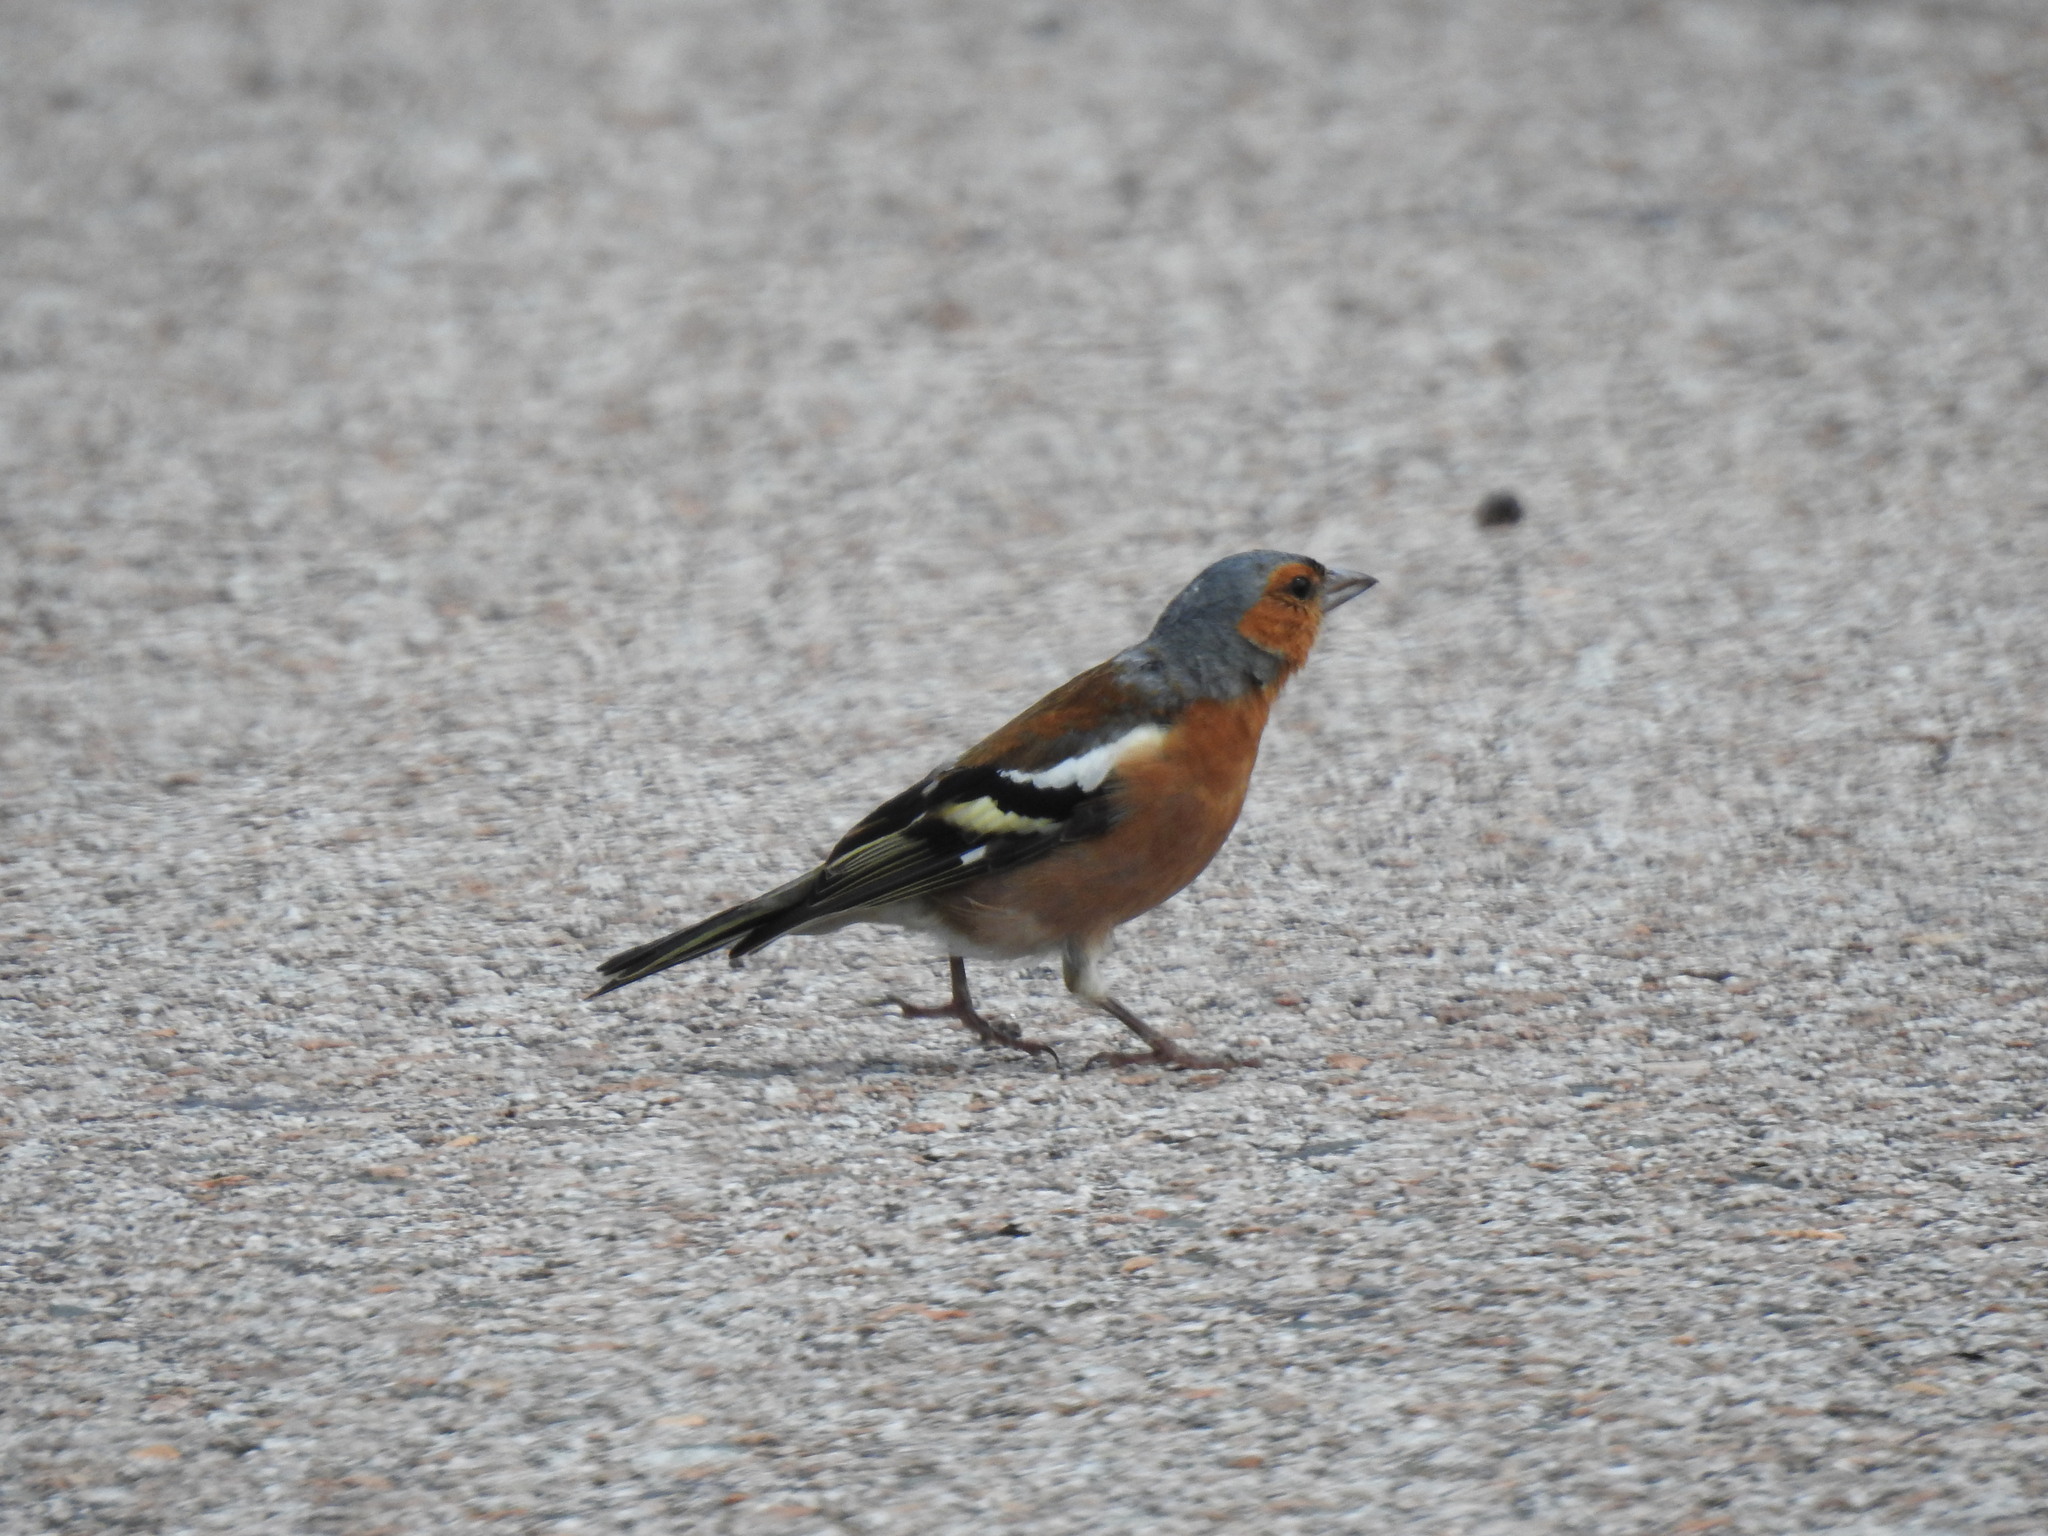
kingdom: Animalia
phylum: Chordata
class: Aves
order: Passeriformes
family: Fringillidae
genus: Fringilla
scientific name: Fringilla coelebs
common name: Common chaffinch
